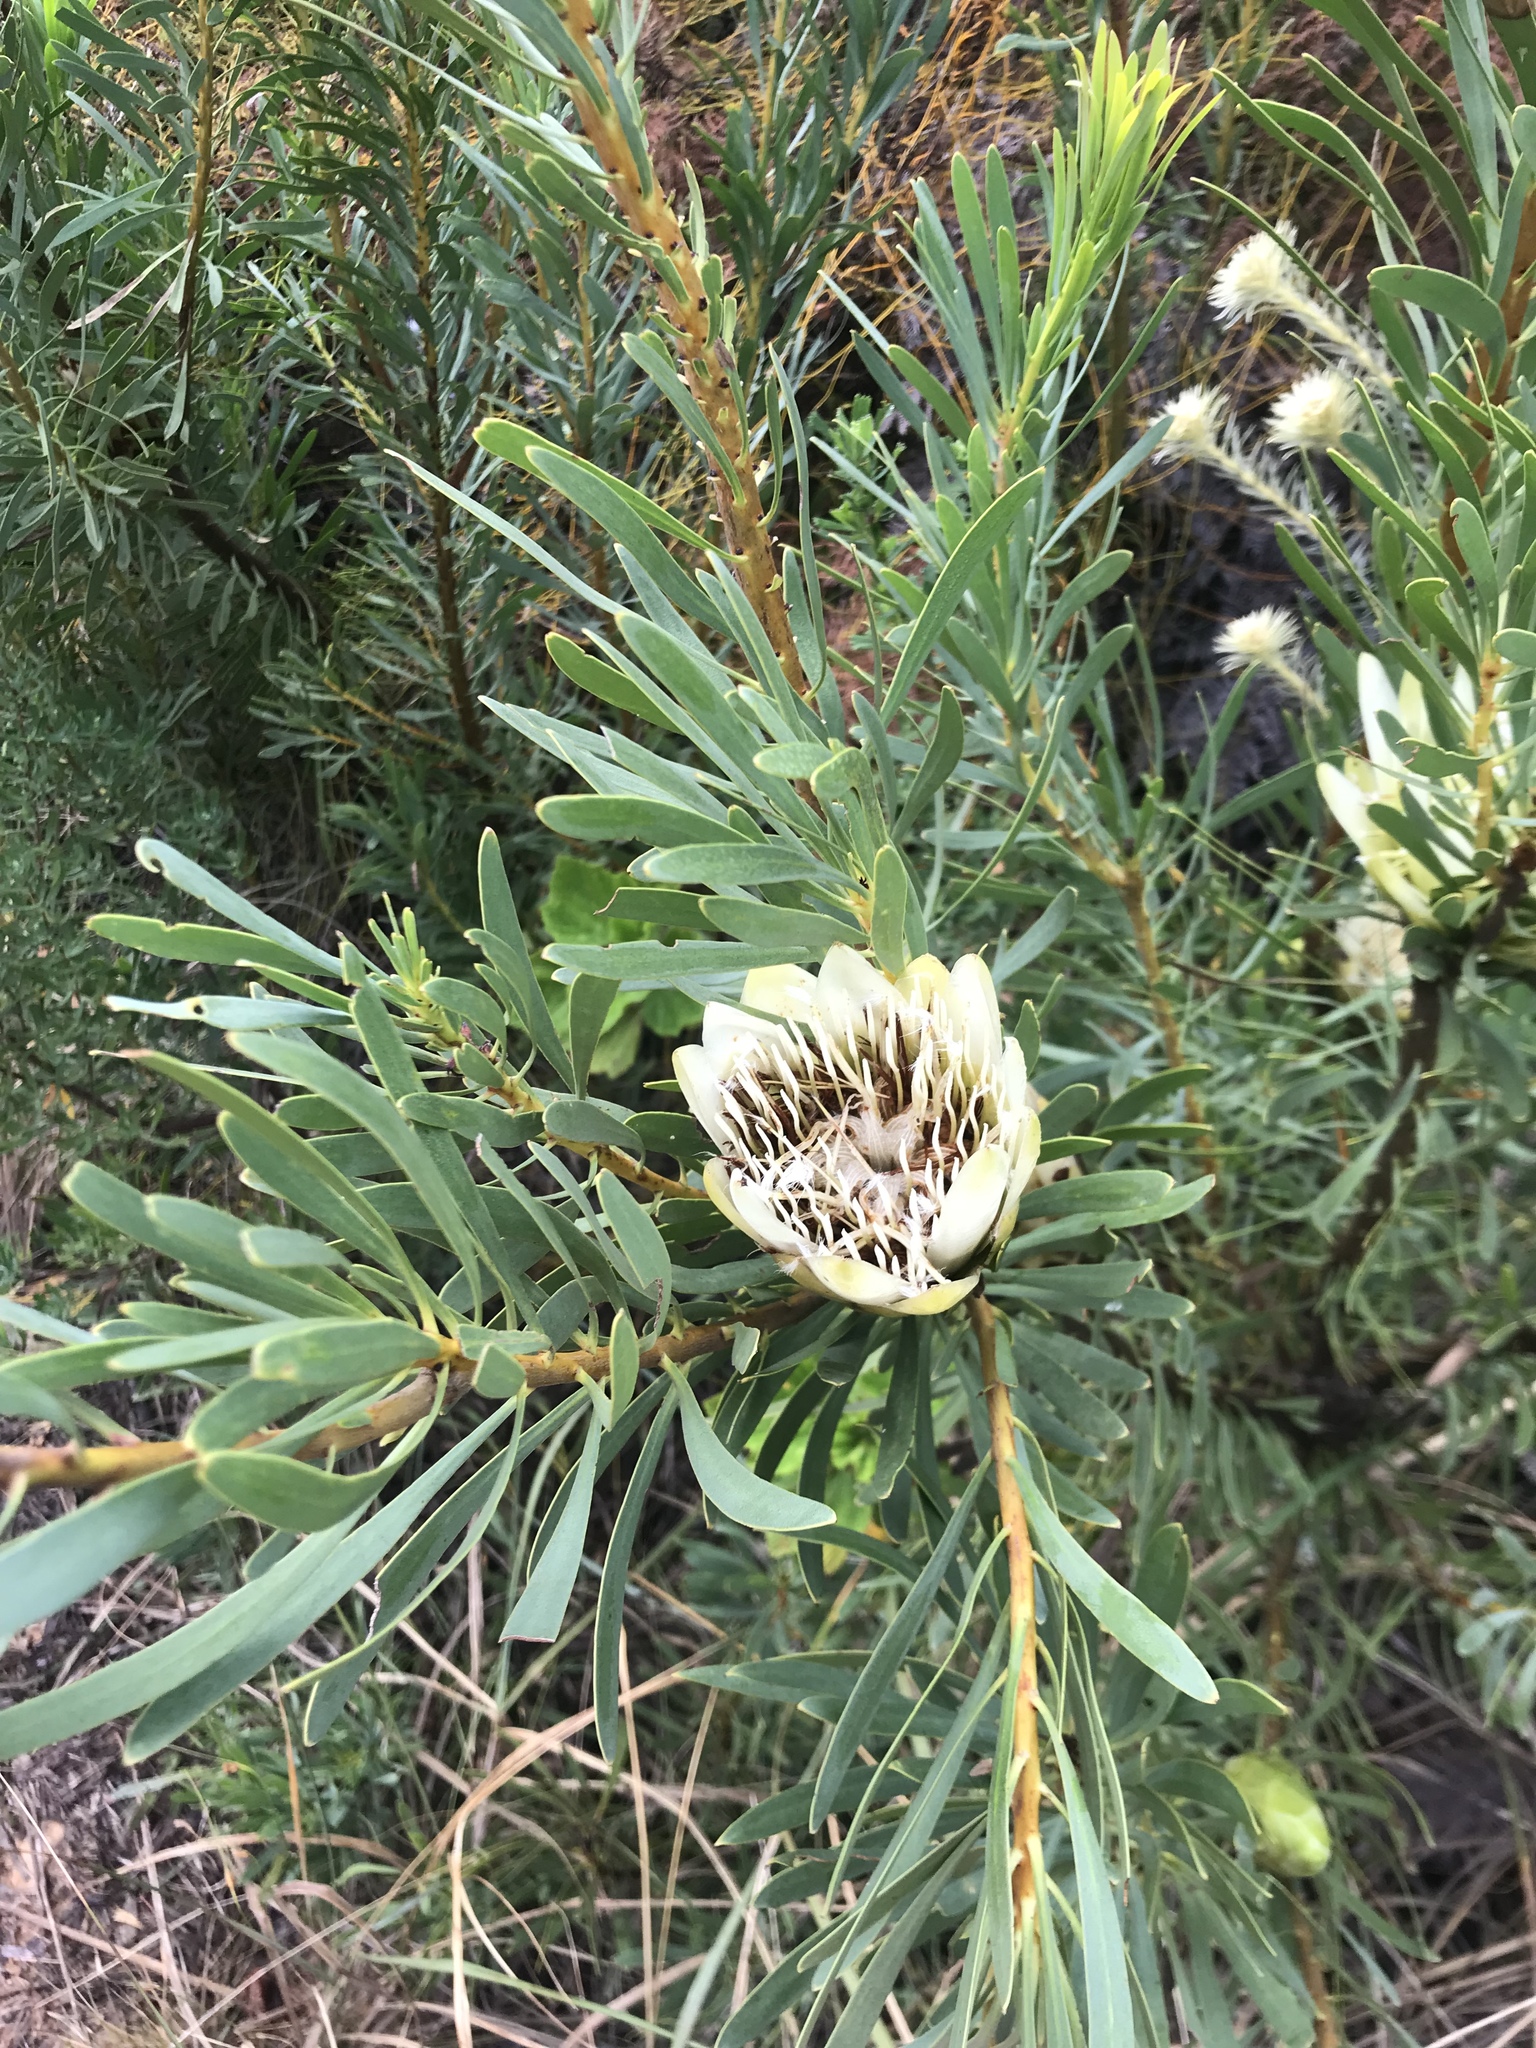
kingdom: Plantae
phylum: Tracheophyta
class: Magnoliopsida
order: Proteales
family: Proteaceae
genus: Protea
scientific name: Protea repens
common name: Sugarbush
